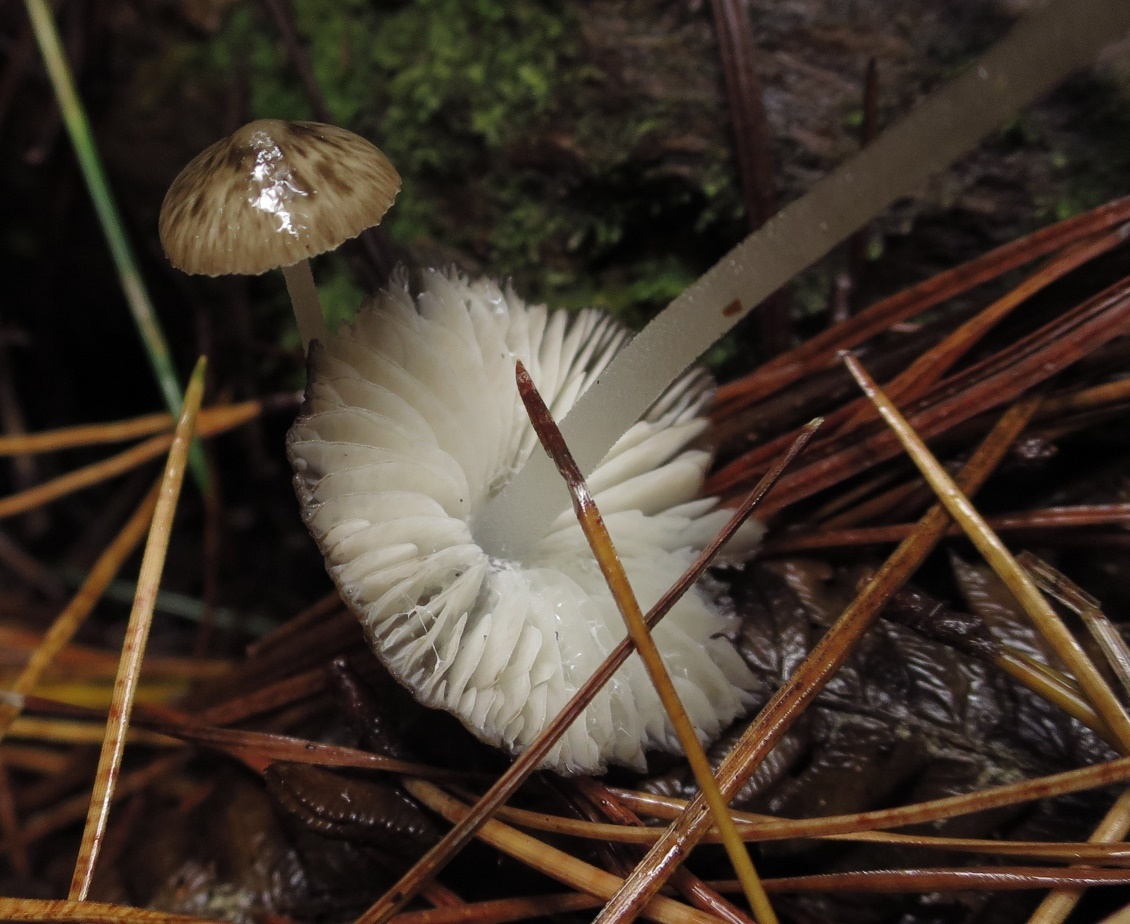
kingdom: Fungi
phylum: Basidiomycota
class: Agaricomycetes
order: Agaricales
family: Porotheleaceae
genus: Pseudohydropus
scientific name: Pseudohydropus parafunebris
